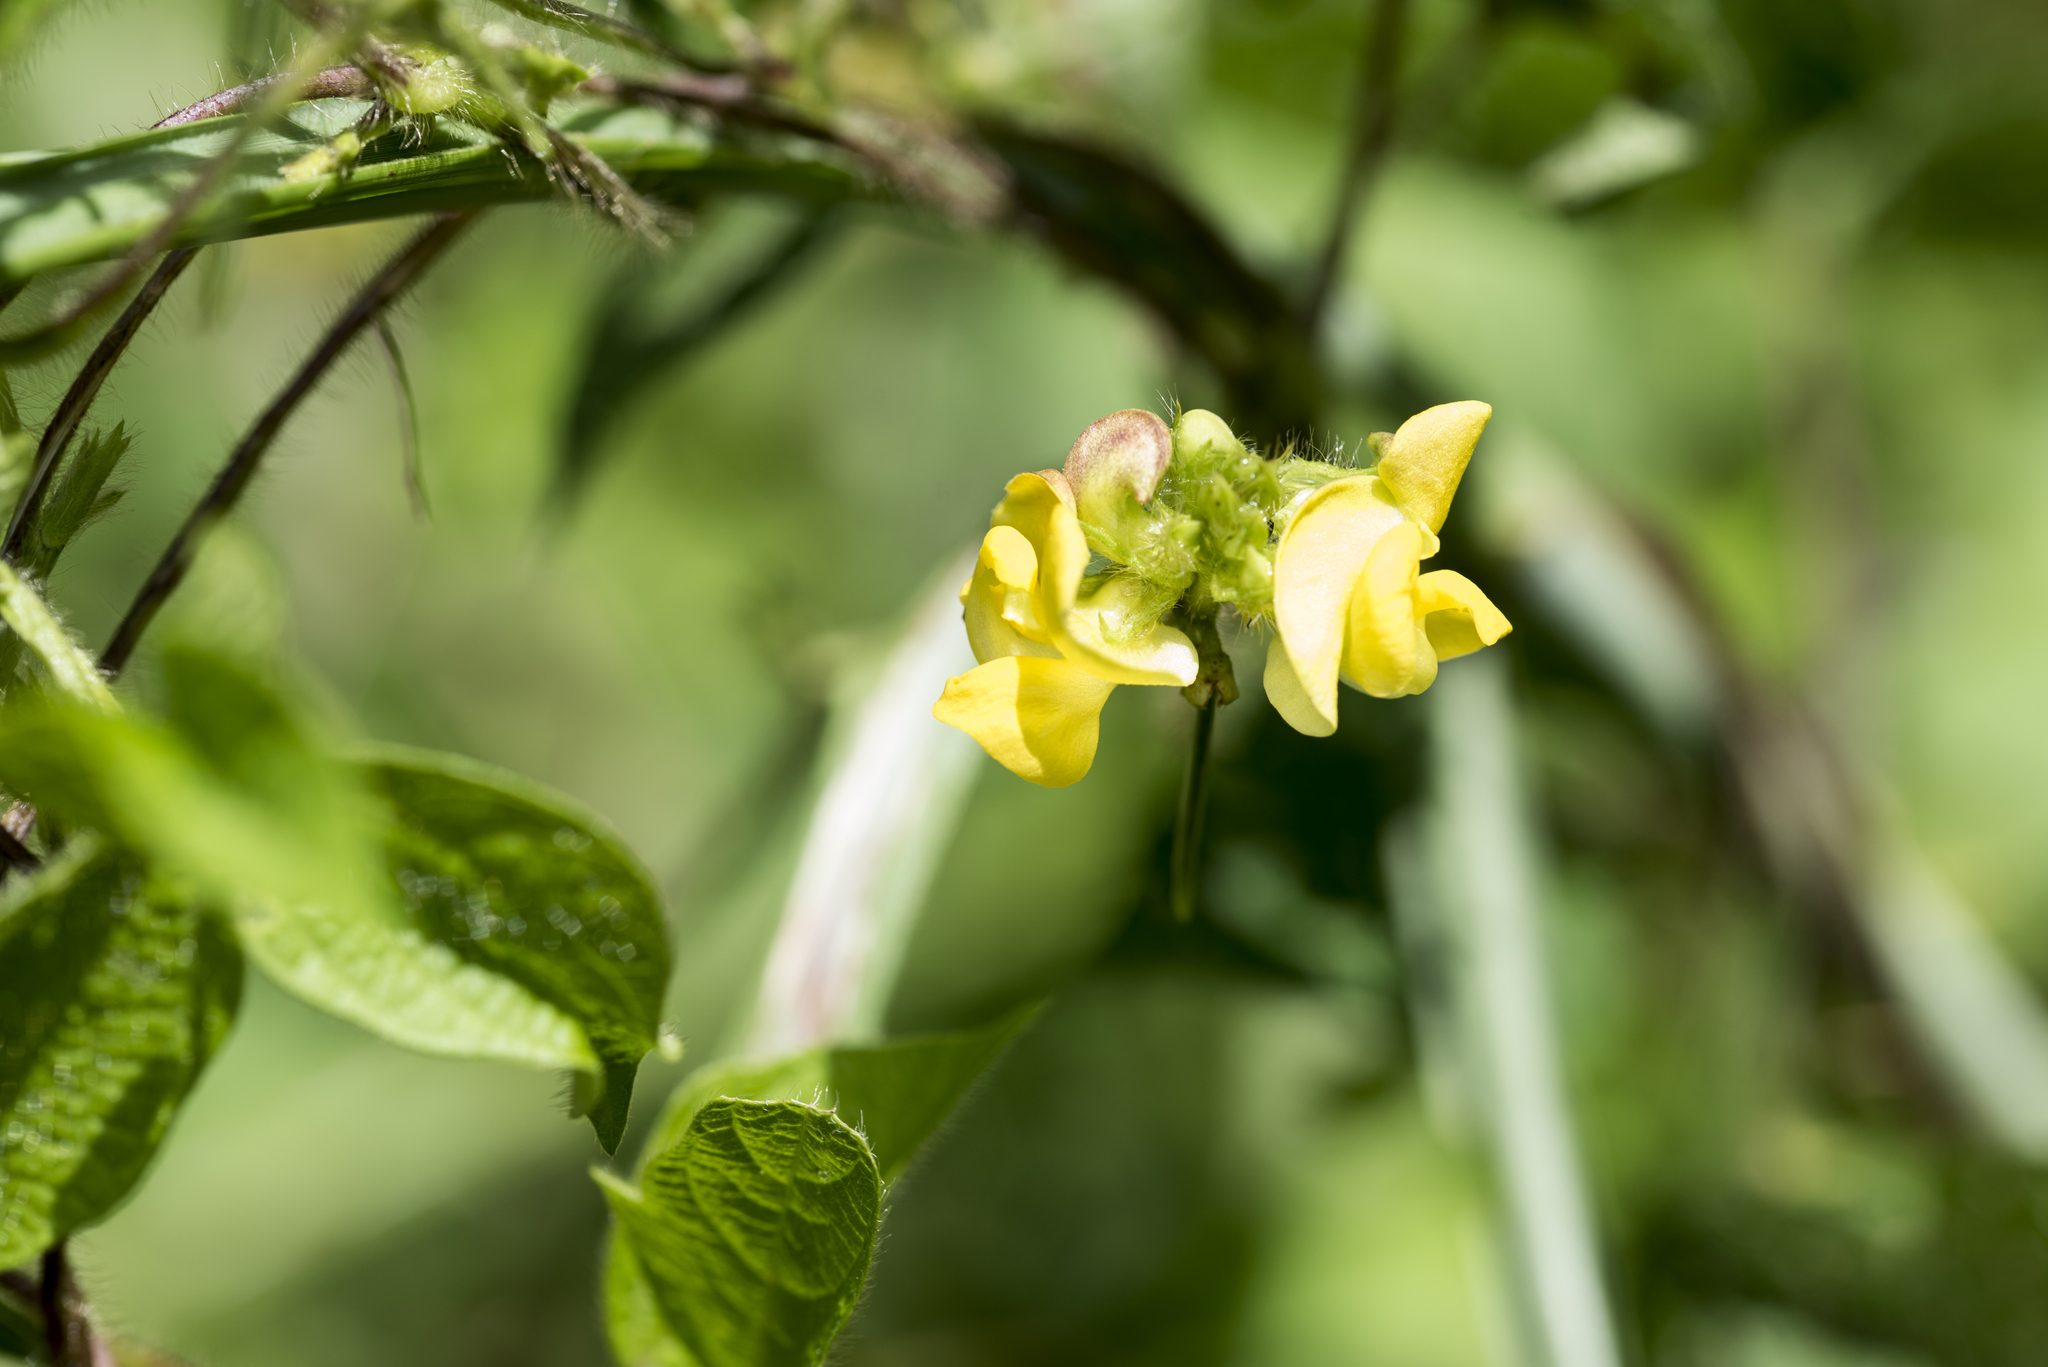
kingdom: Plantae
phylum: Tracheophyta
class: Magnoliopsida
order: Fabales
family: Fabaceae
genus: Vigna
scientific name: Vigna radiata
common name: Mung-bean
